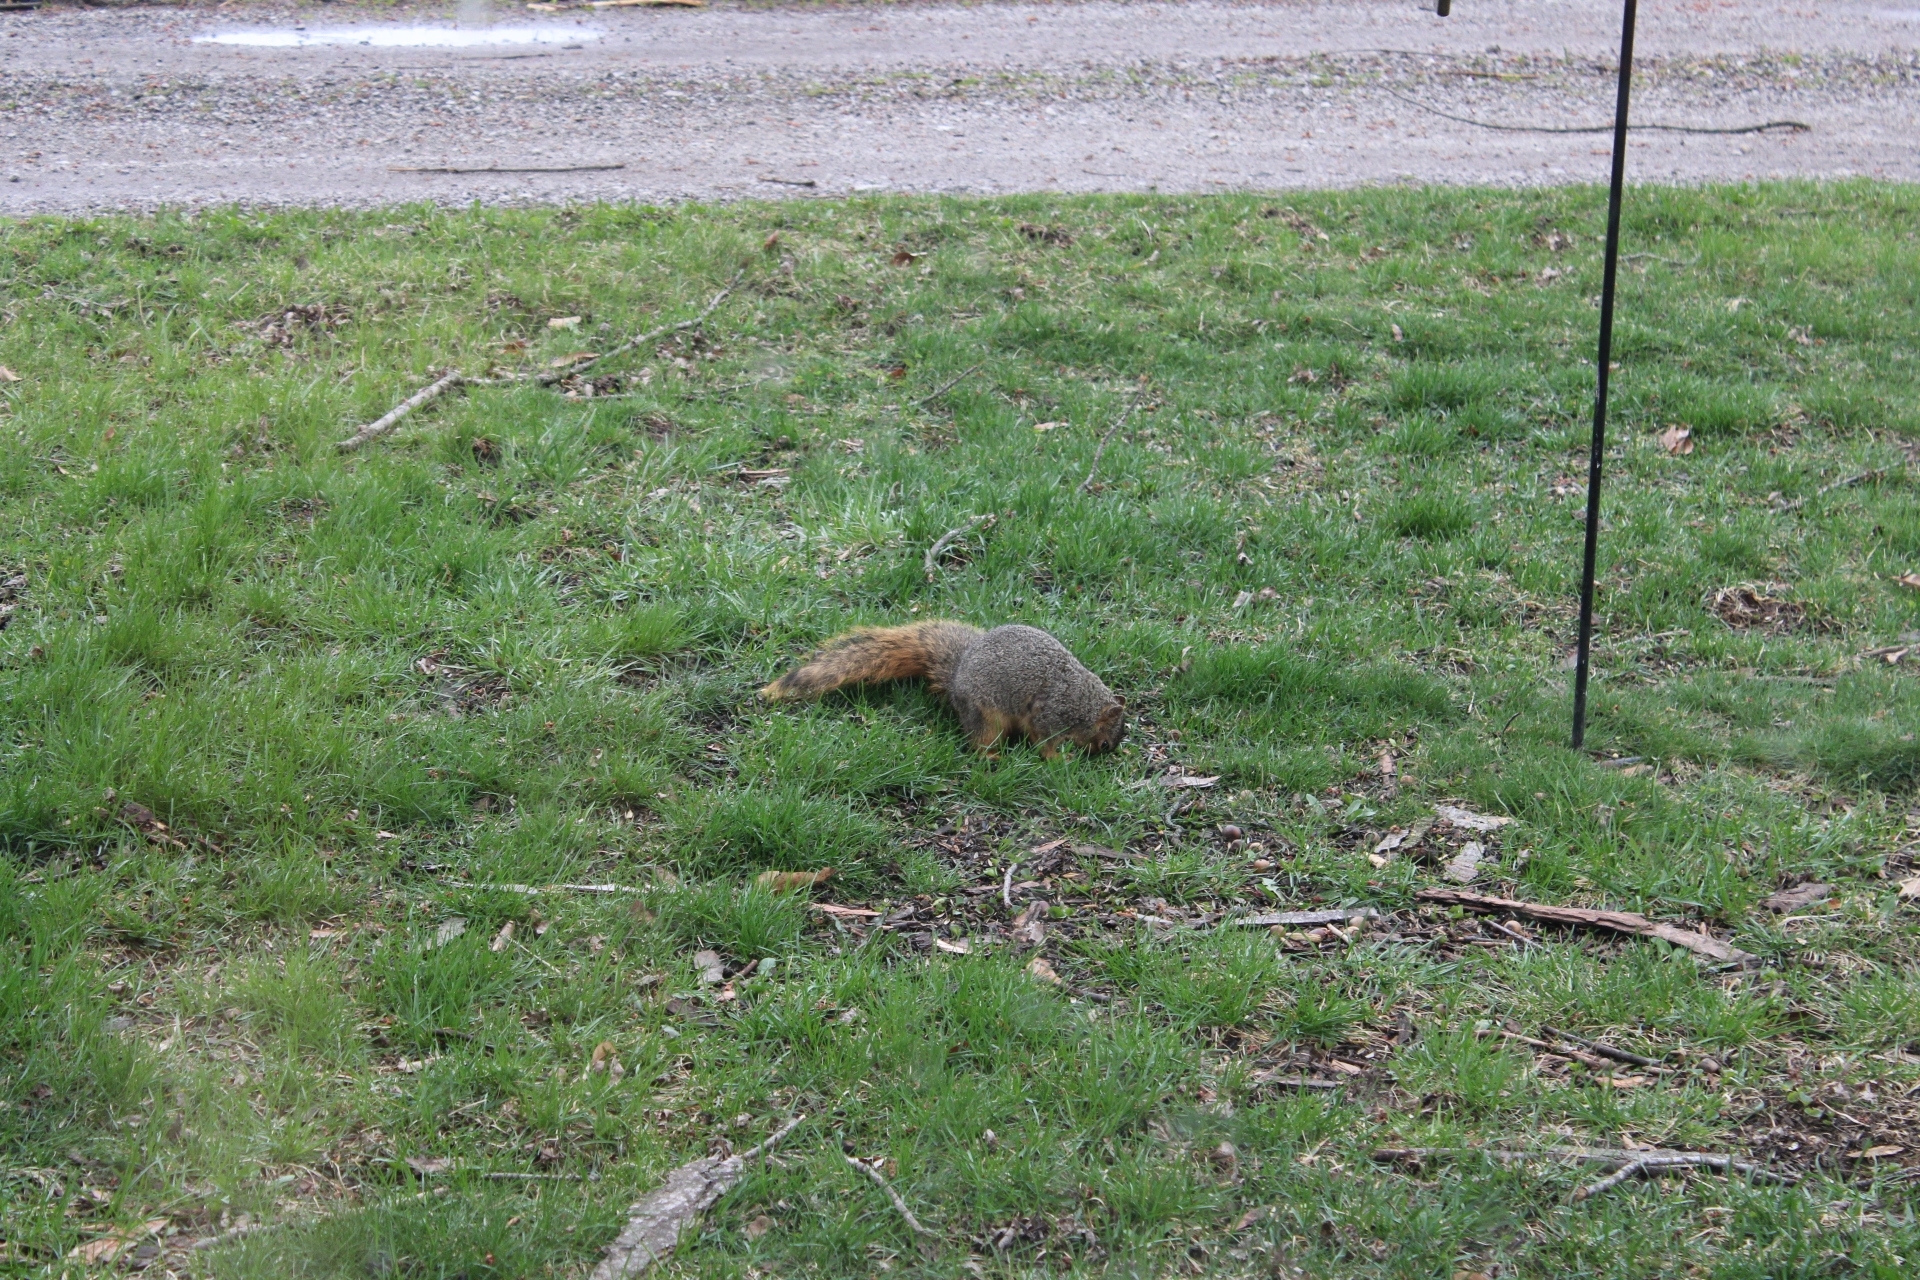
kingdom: Animalia
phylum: Chordata
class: Mammalia
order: Rodentia
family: Sciuridae
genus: Sciurus
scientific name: Sciurus niger
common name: Fox squirrel
